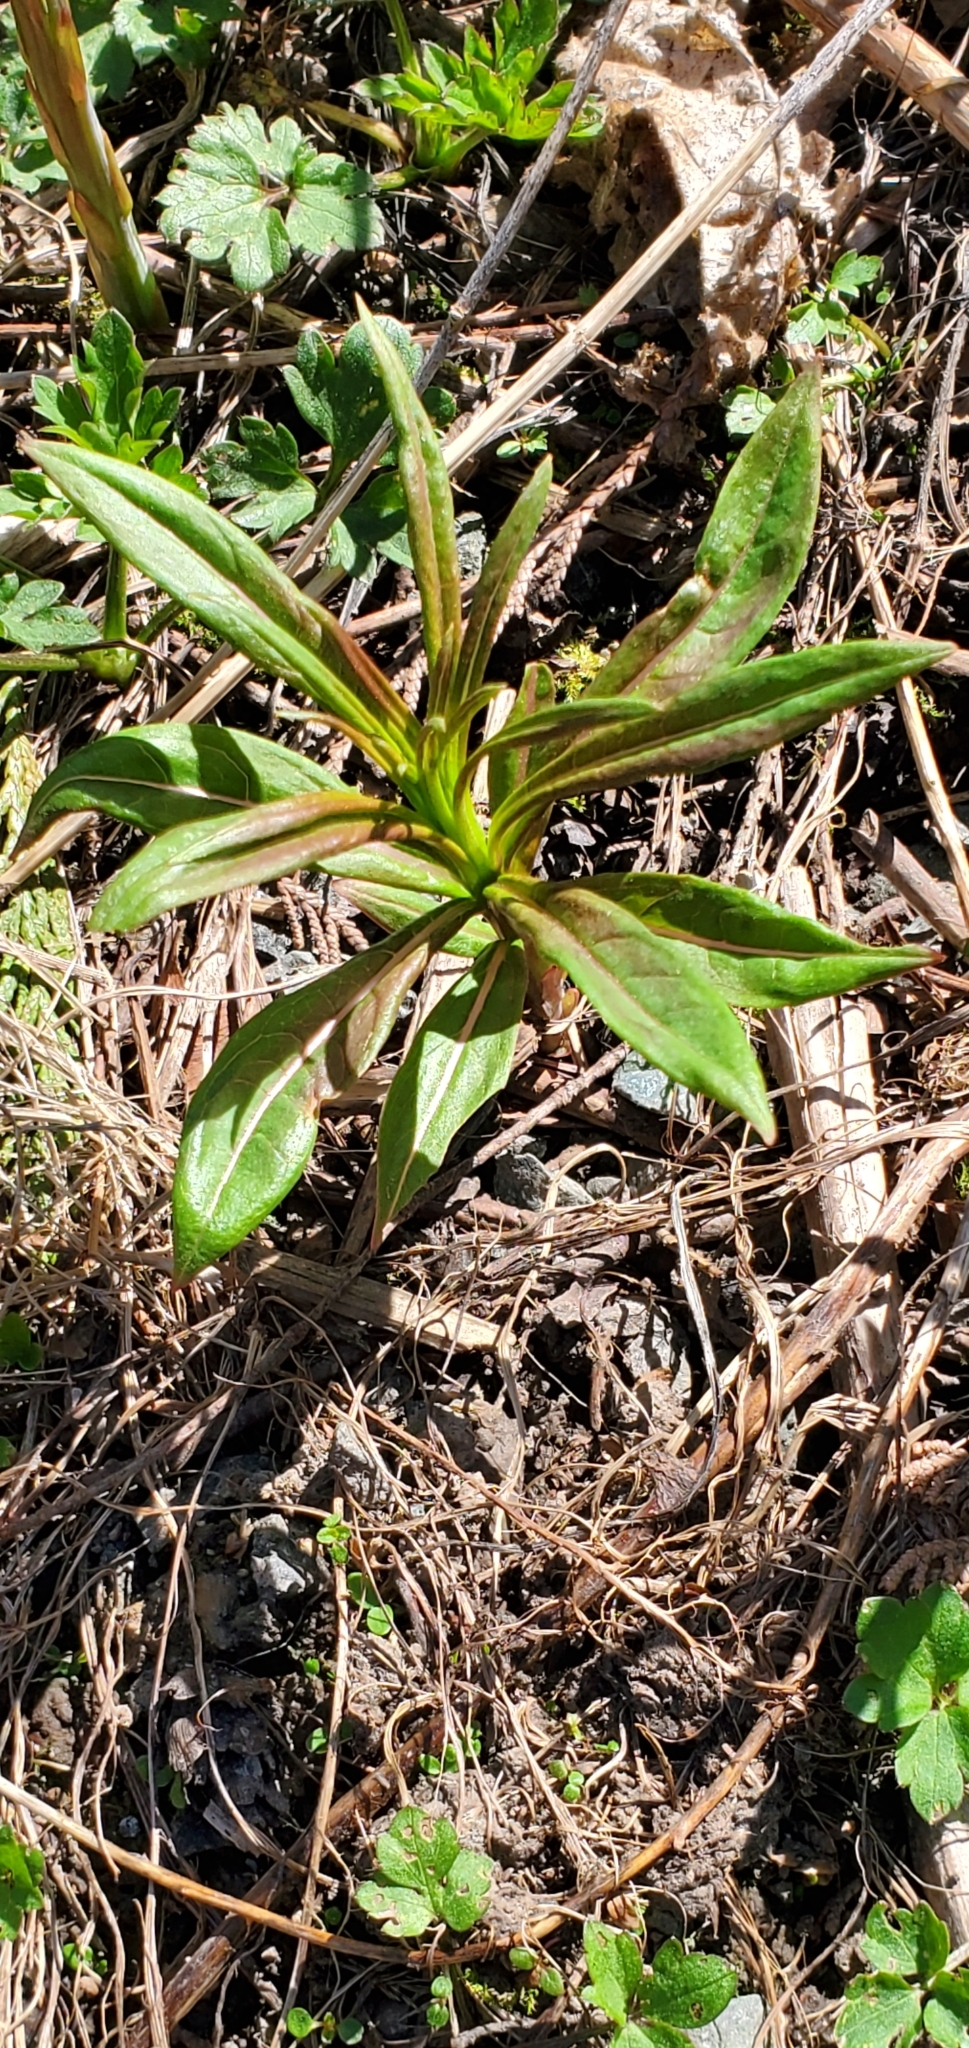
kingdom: Plantae
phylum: Tracheophyta
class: Magnoliopsida
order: Myrtales
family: Onagraceae
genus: Chamaenerion
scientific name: Chamaenerion angustifolium
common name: Fireweed
